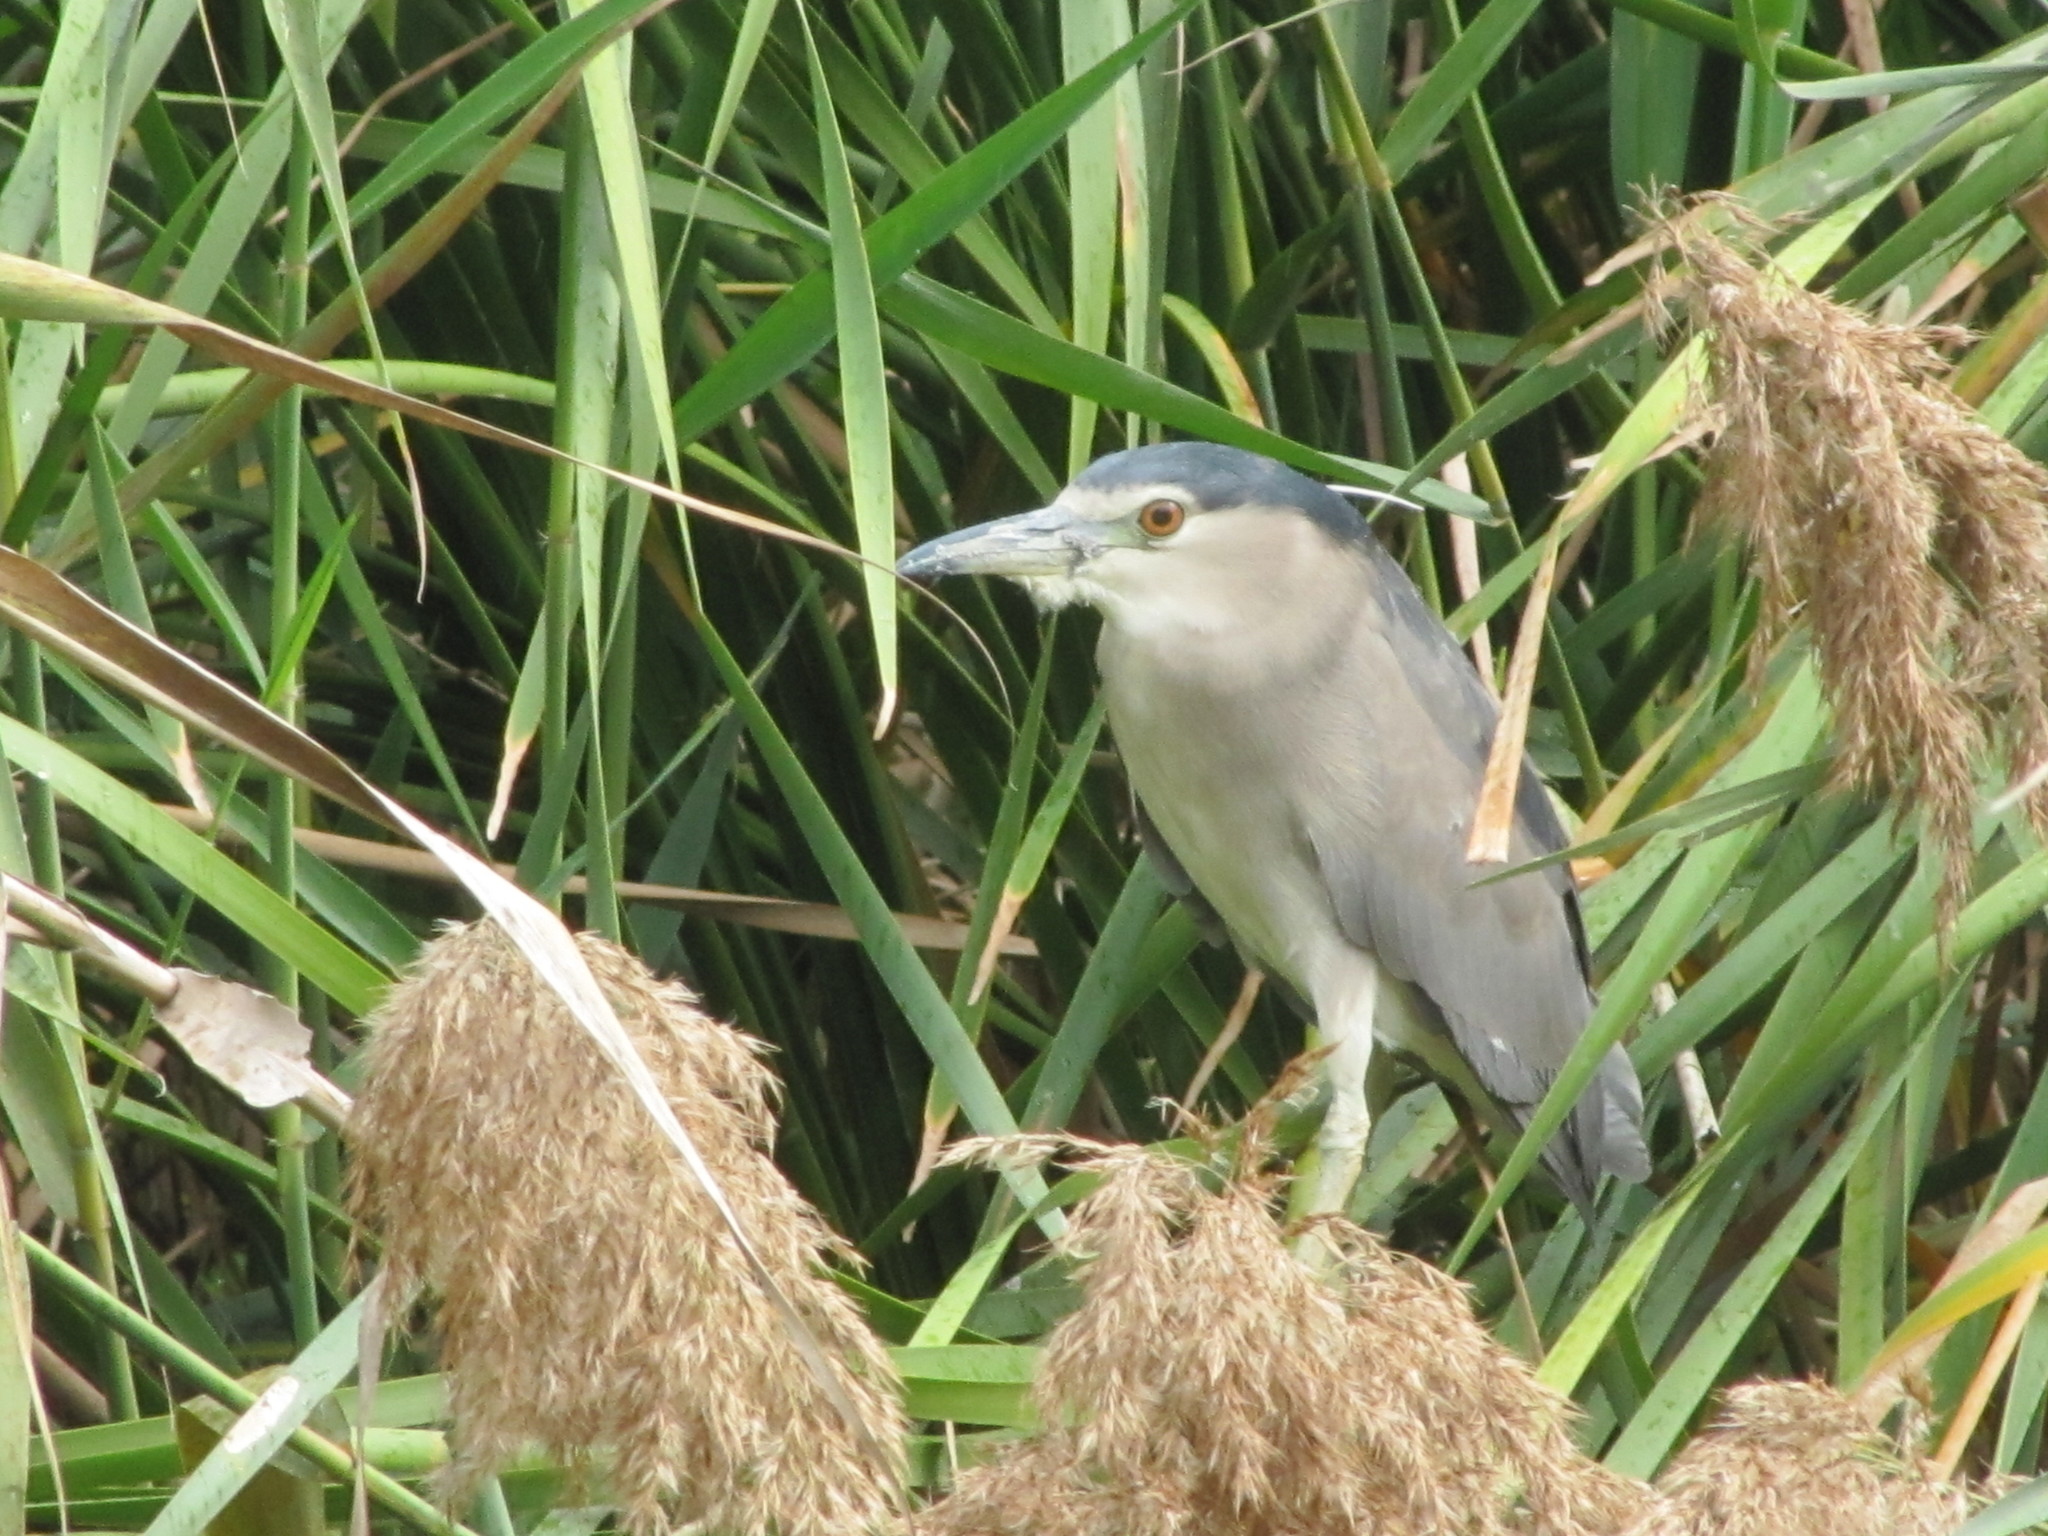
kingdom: Animalia
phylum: Chordata
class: Aves
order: Pelecaniformes
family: Ardeidae
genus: Nycticorax
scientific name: Nycticorax nycticorax
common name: Black-crowned night heron
